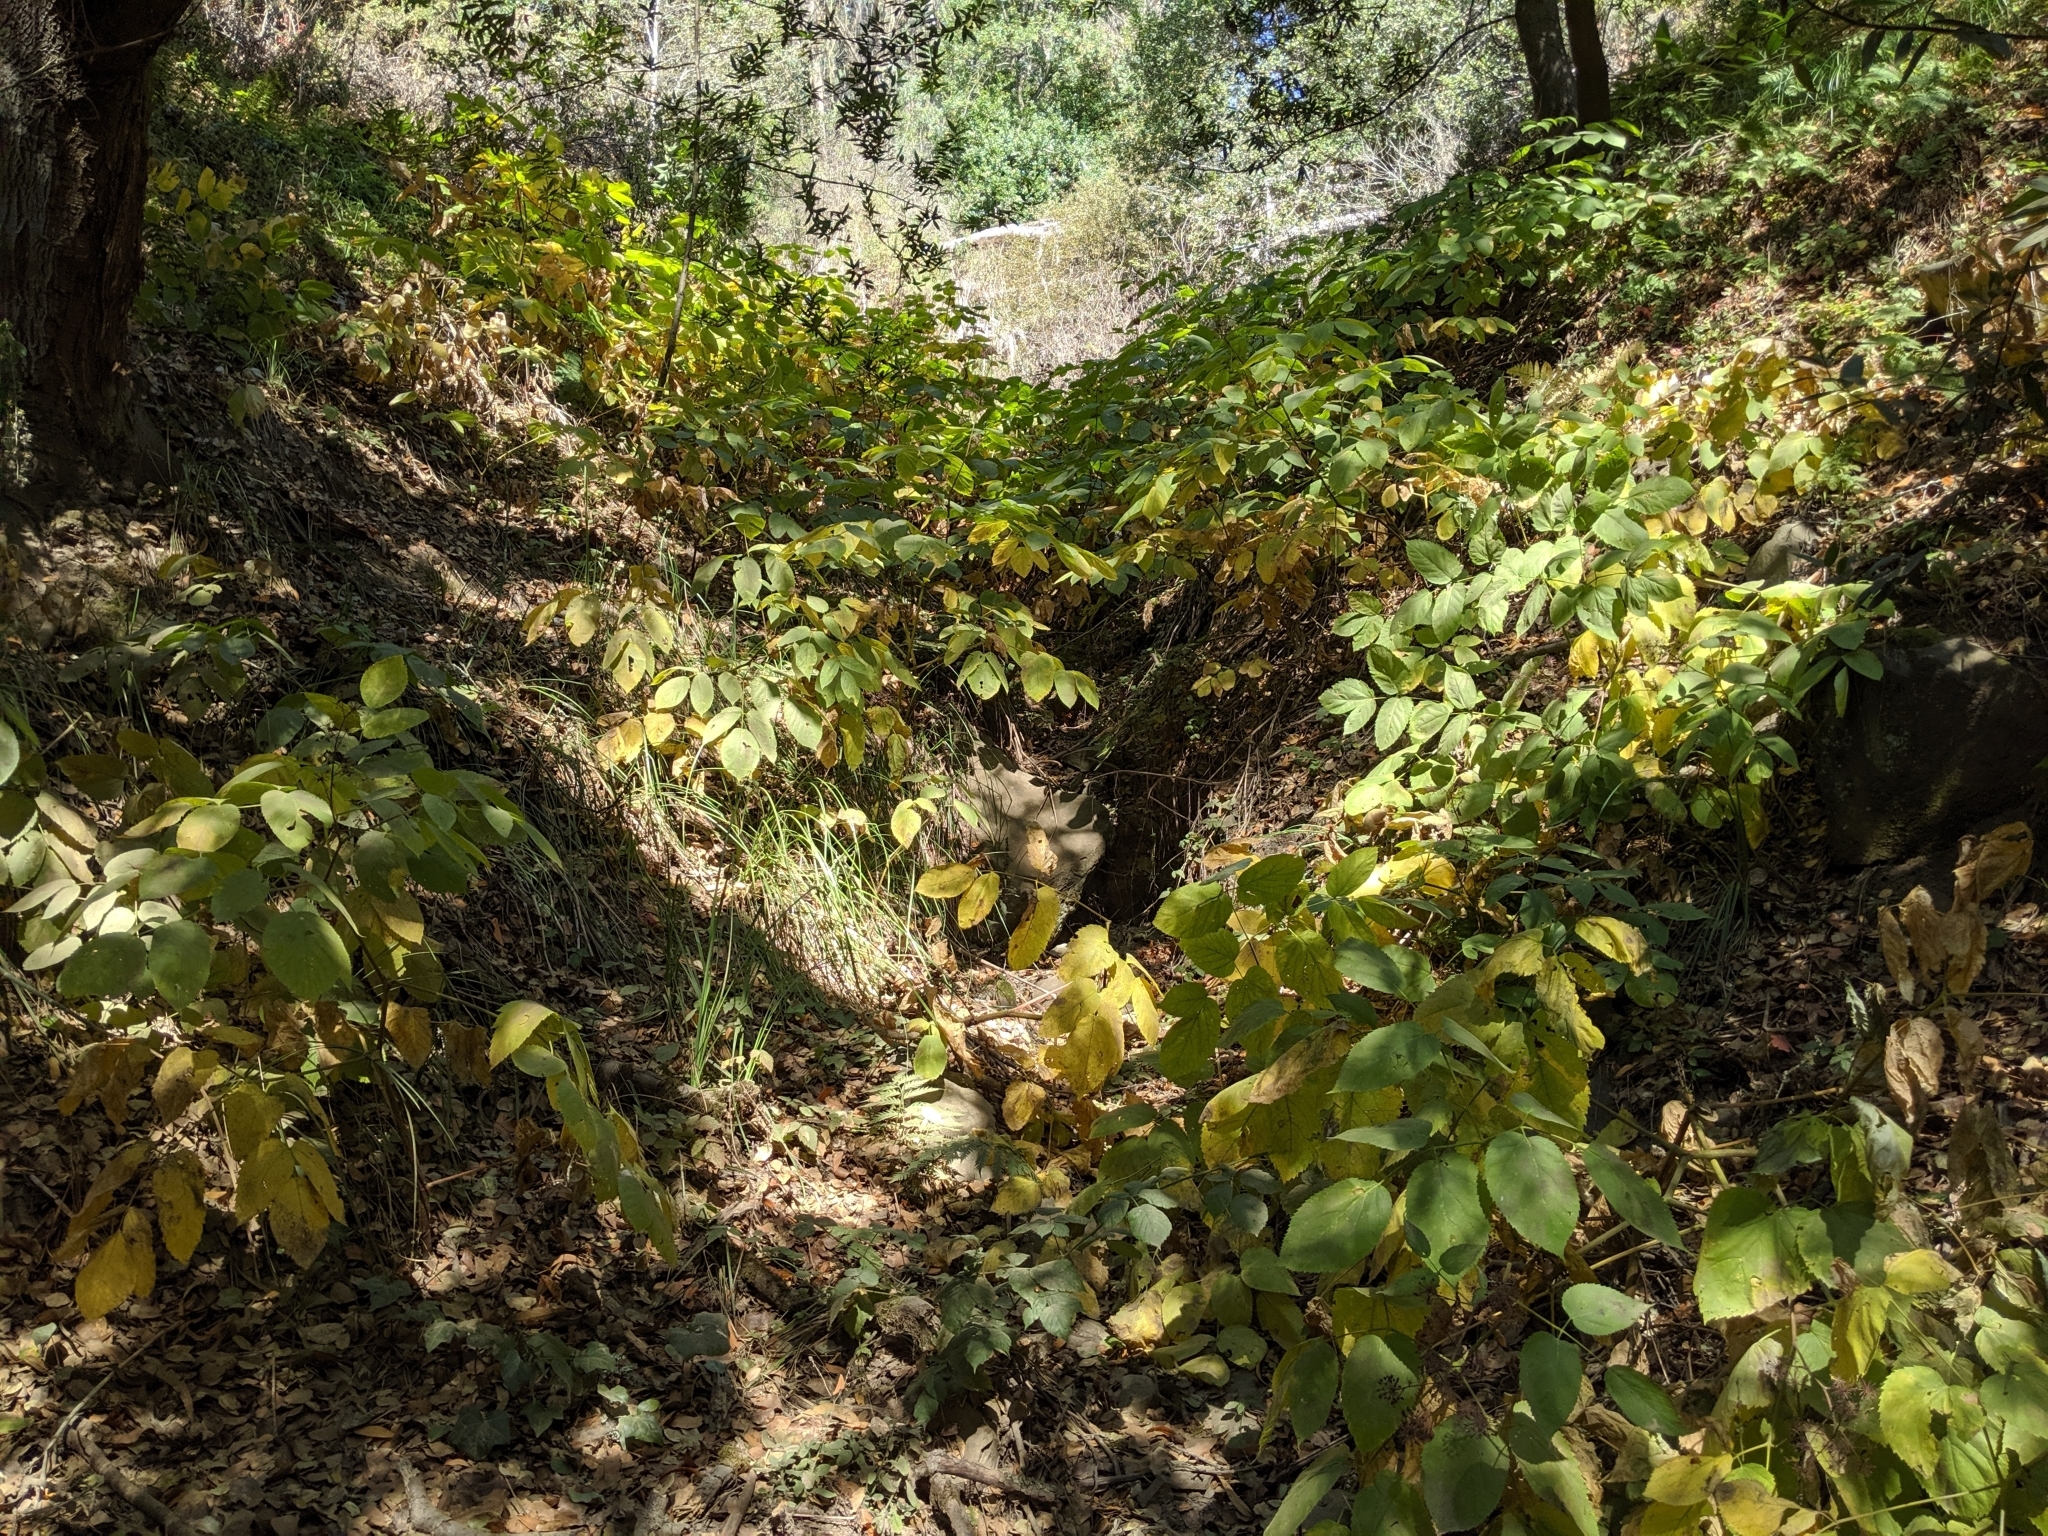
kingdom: Plantae
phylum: Tracheophyta
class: Magnoliopsida
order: Apiales
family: Araliaceae
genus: Aralia
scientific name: Aralia californica
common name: California-ginseng
